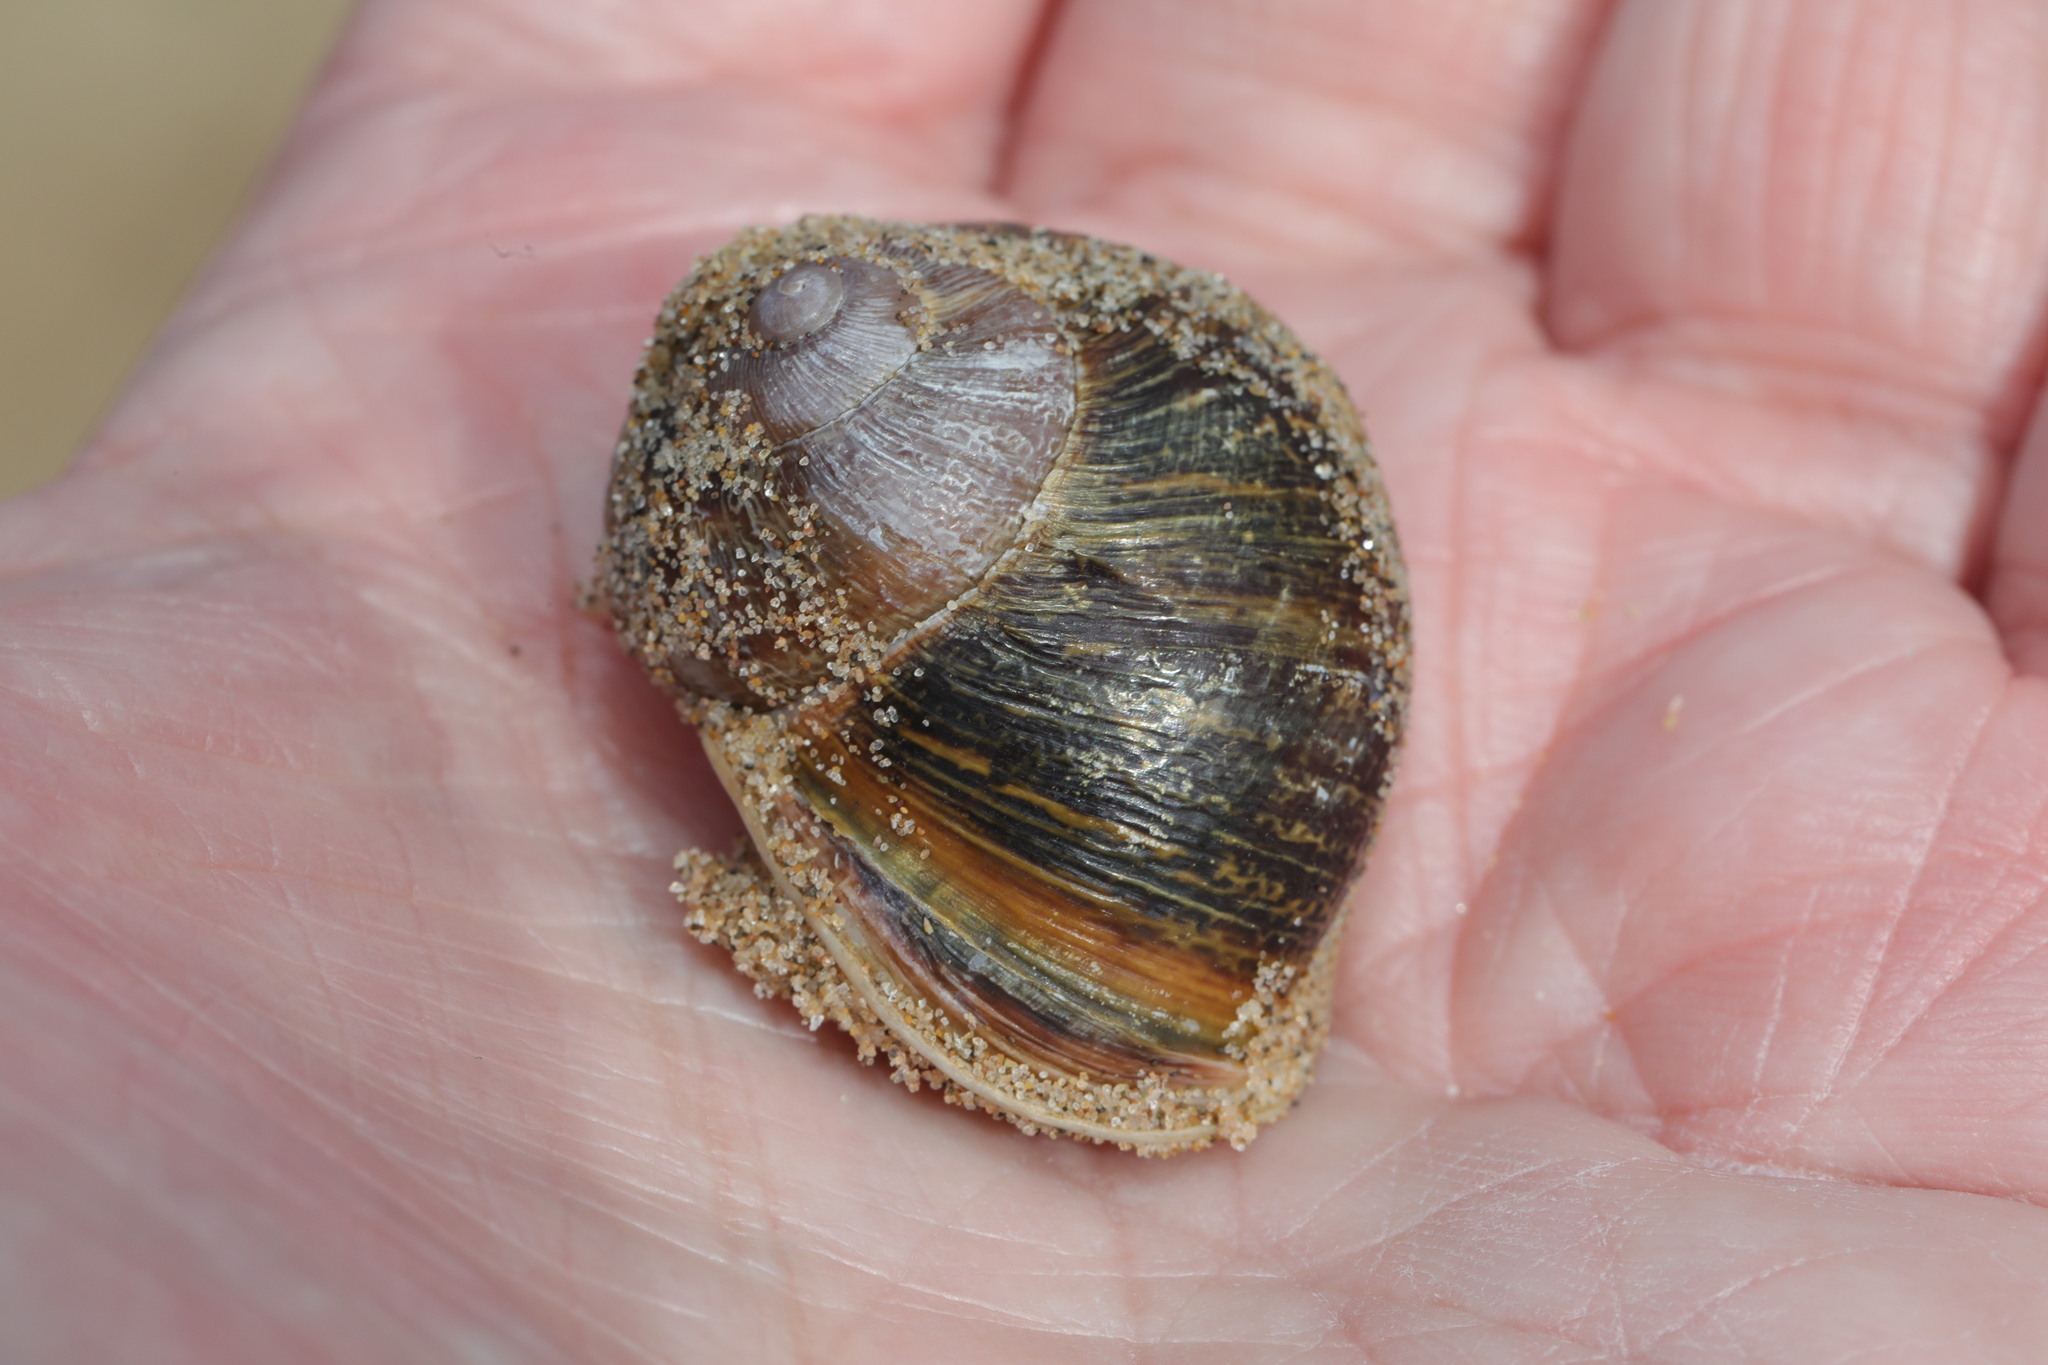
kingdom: Animalia
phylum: Mollusca
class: Gastropoda
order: Stylommatophora
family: Helicidae
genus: Cornu
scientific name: Cornu aspersum
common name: Brown garden snail
